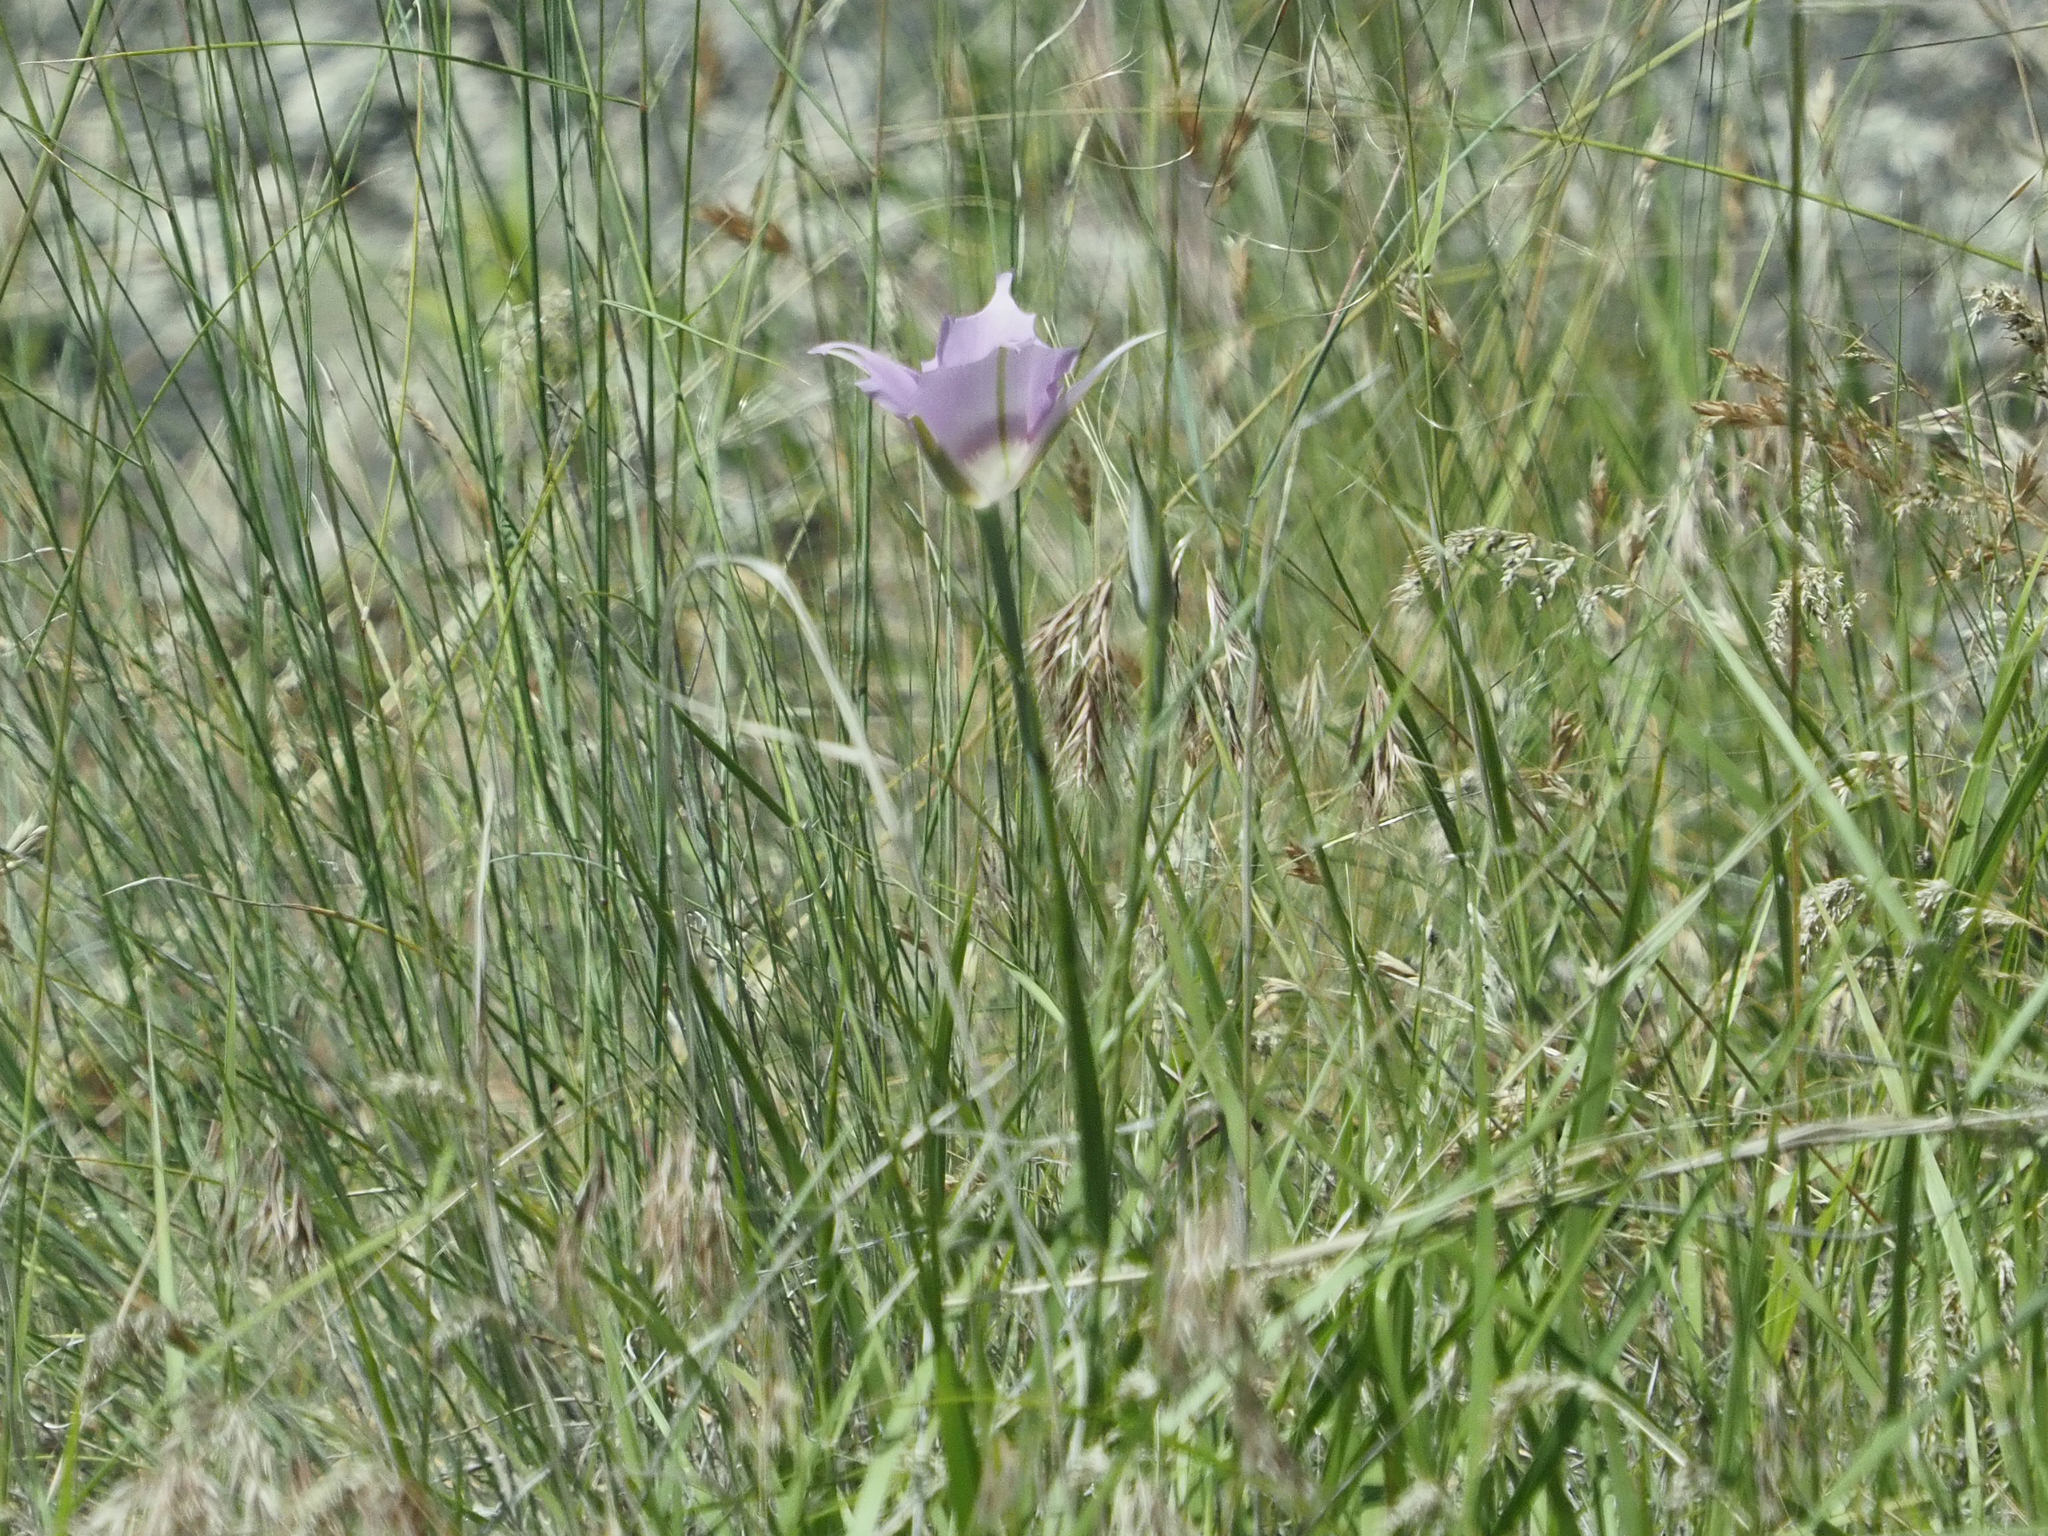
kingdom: Plantae
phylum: Tracheophyta
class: Liliopsida
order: Liliales
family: Liliaceae
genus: Calochortus
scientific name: Calochortus macrocarpus
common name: Green-band mariposa lily
